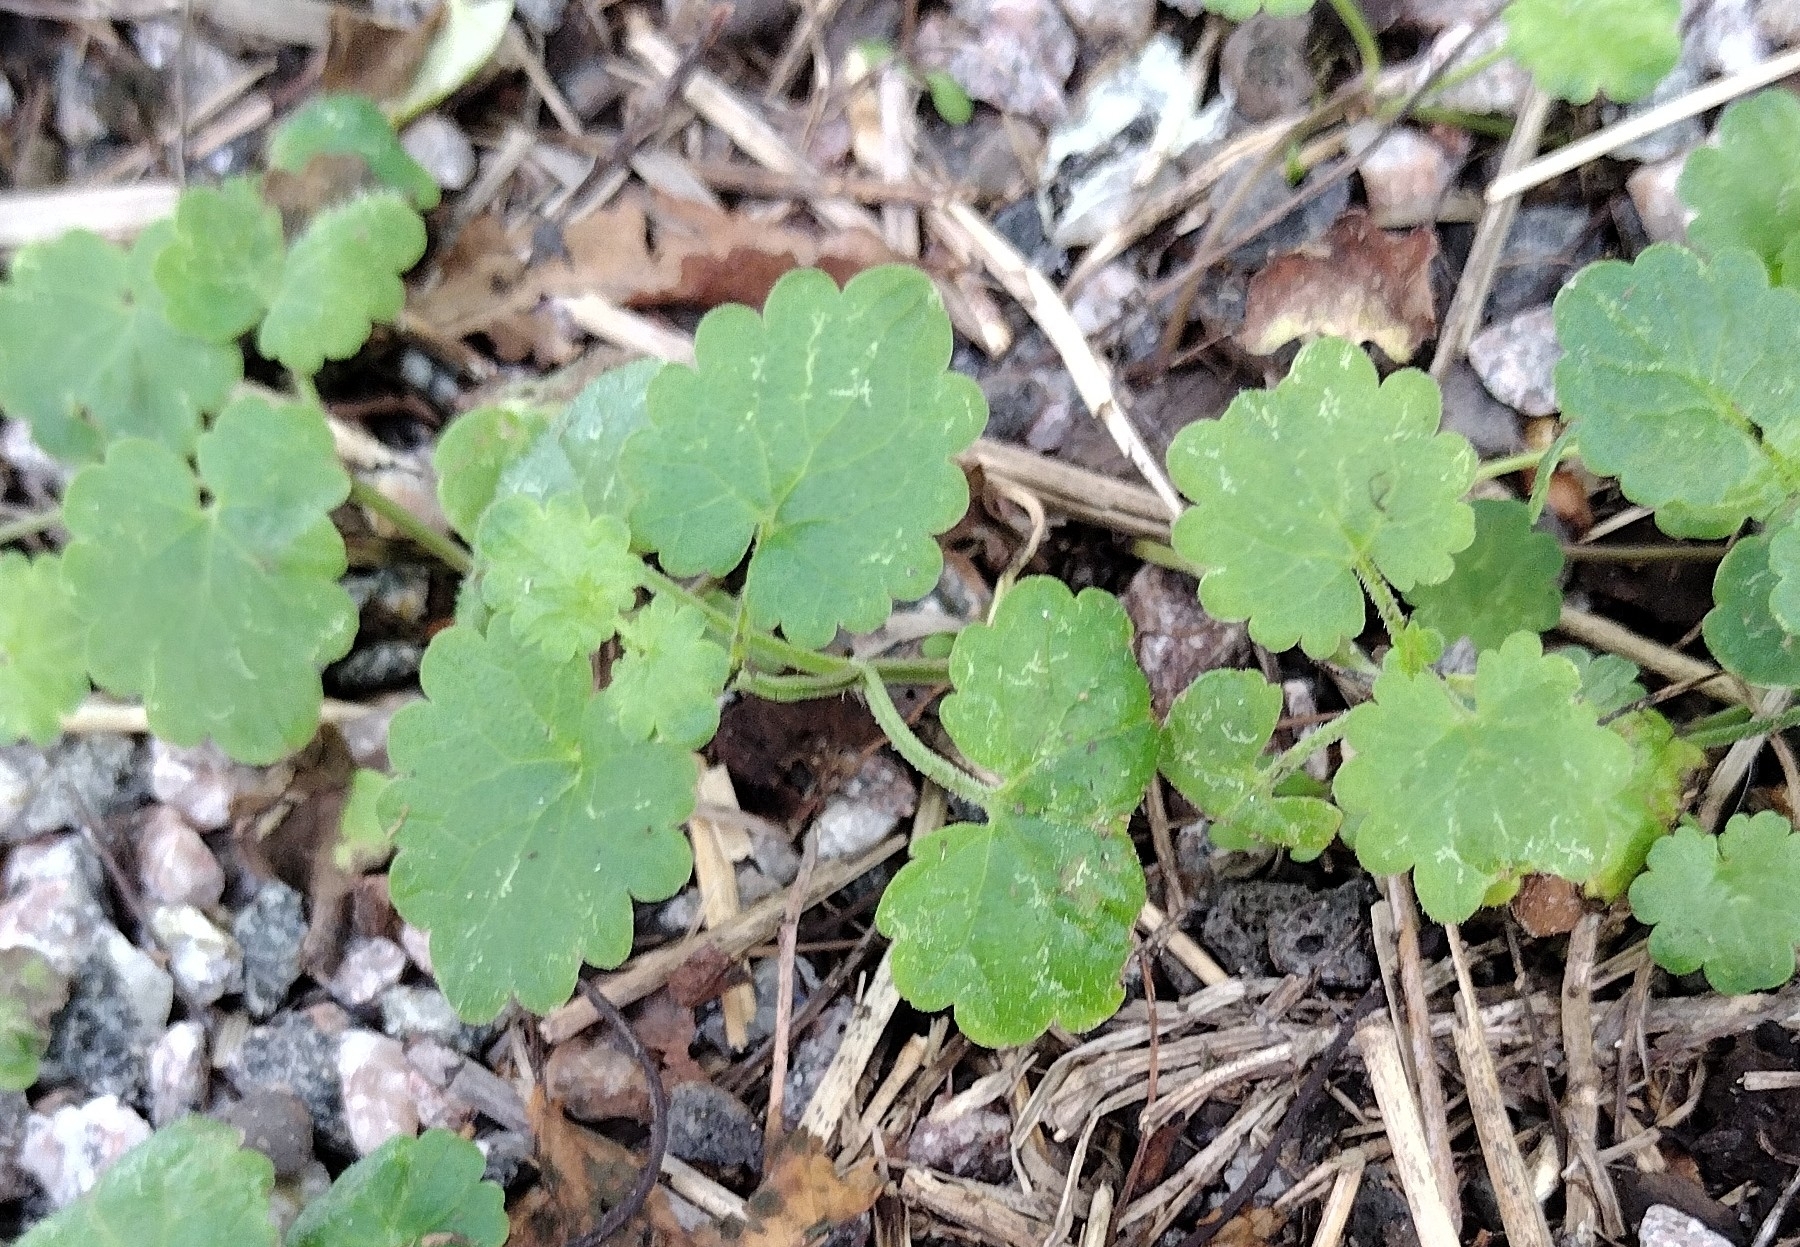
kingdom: Plantae
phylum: Tracheophyta
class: Magnoliopsida
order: Lamiales
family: Lamiaceae
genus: Glechoma
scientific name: Glechoma hederacea
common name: Ground ivy
